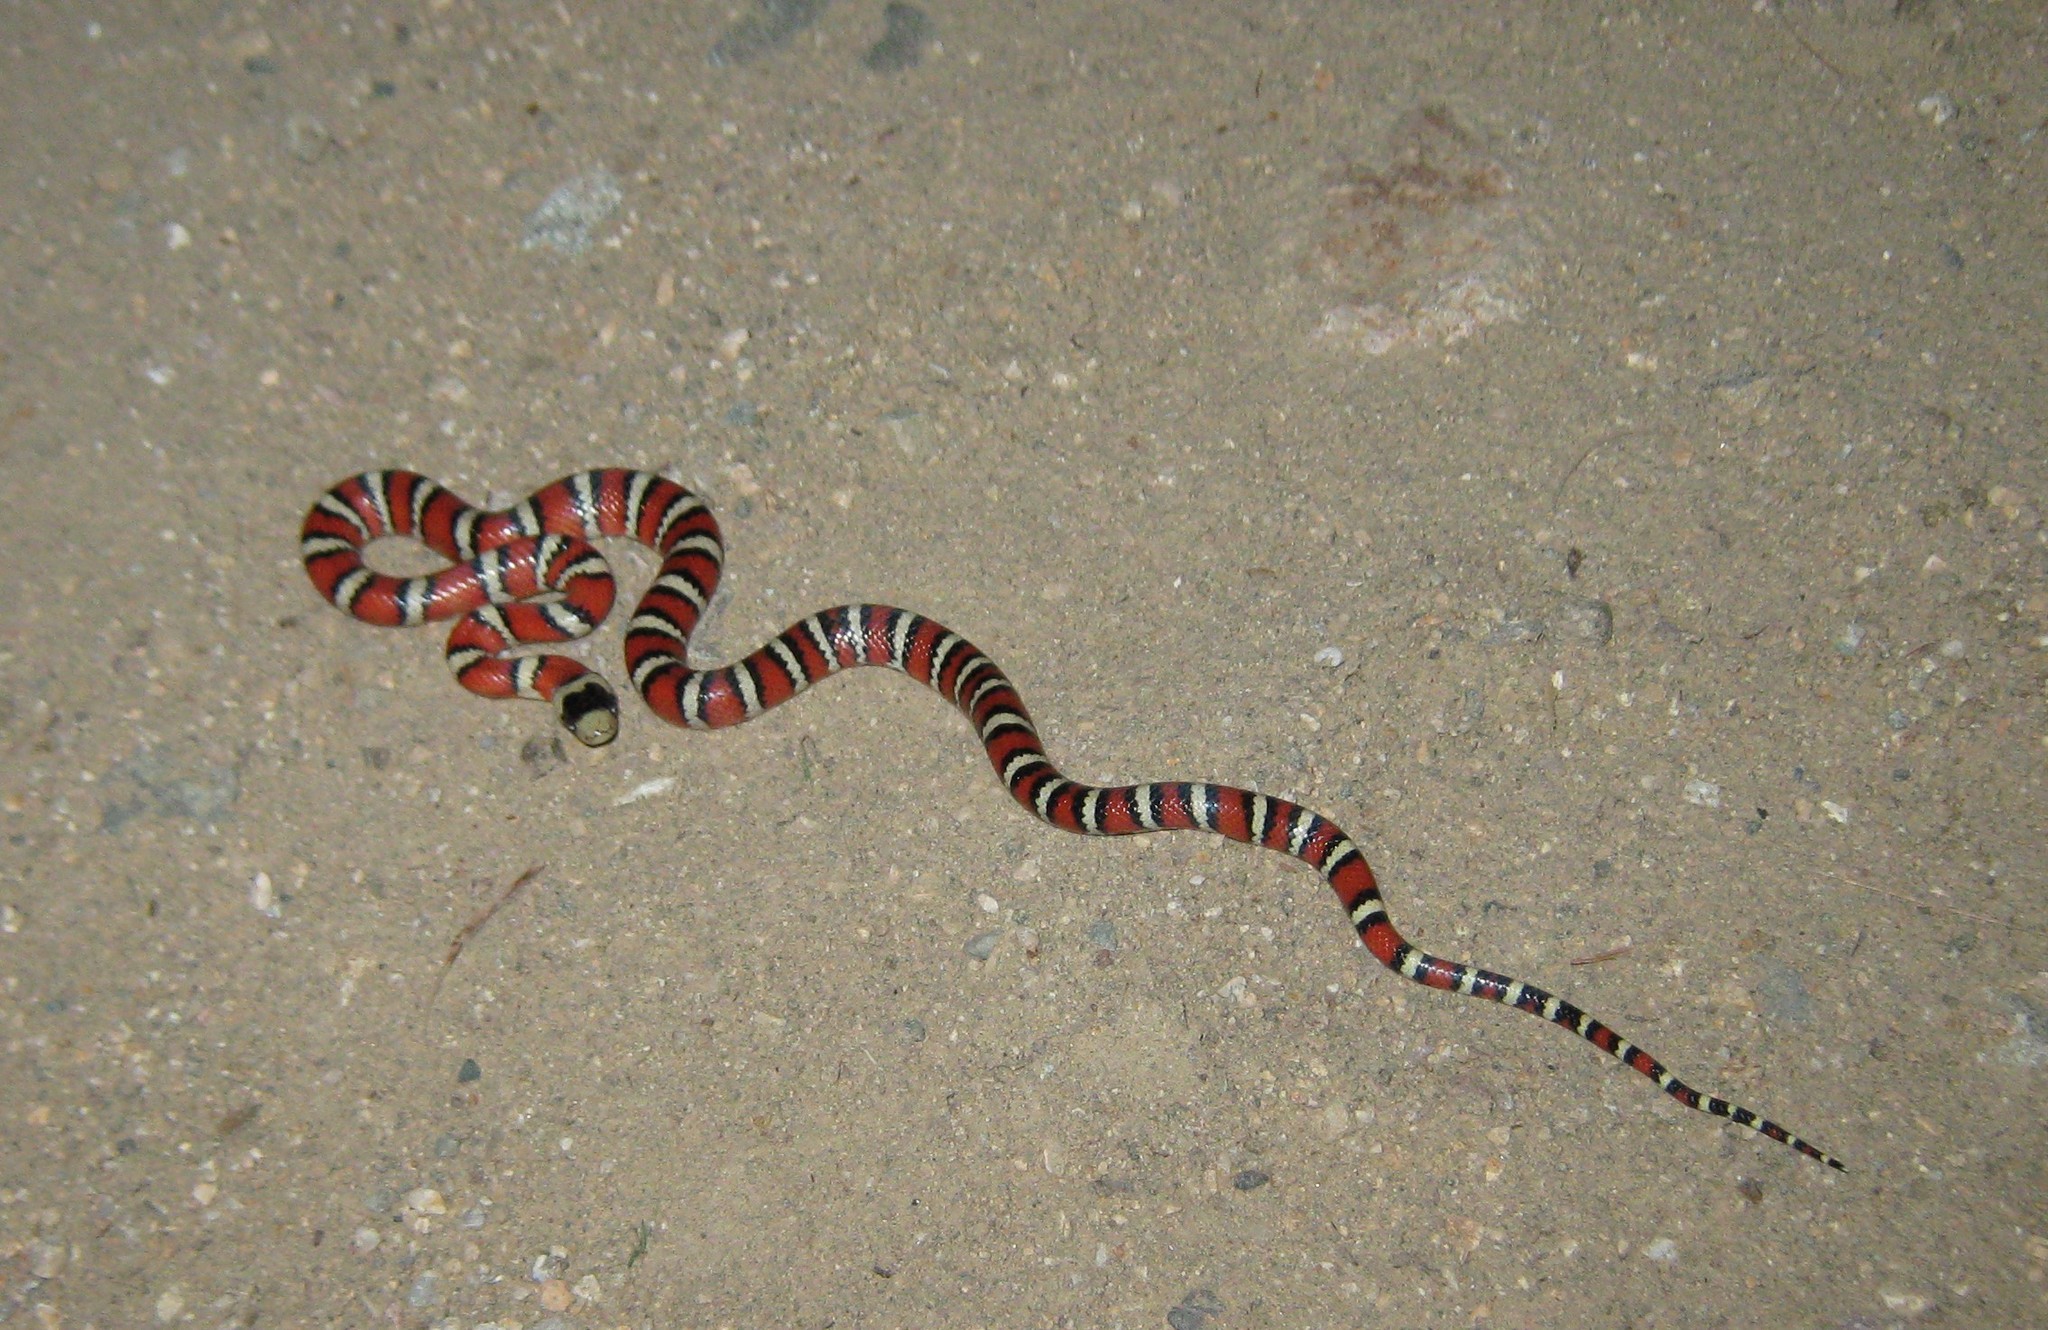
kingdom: Animalia
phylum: Chordata
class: Squamata
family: Colubridae
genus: Lampropeltis
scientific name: Lampropeltis pyromelana
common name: Sonoran mountain kingsnake
